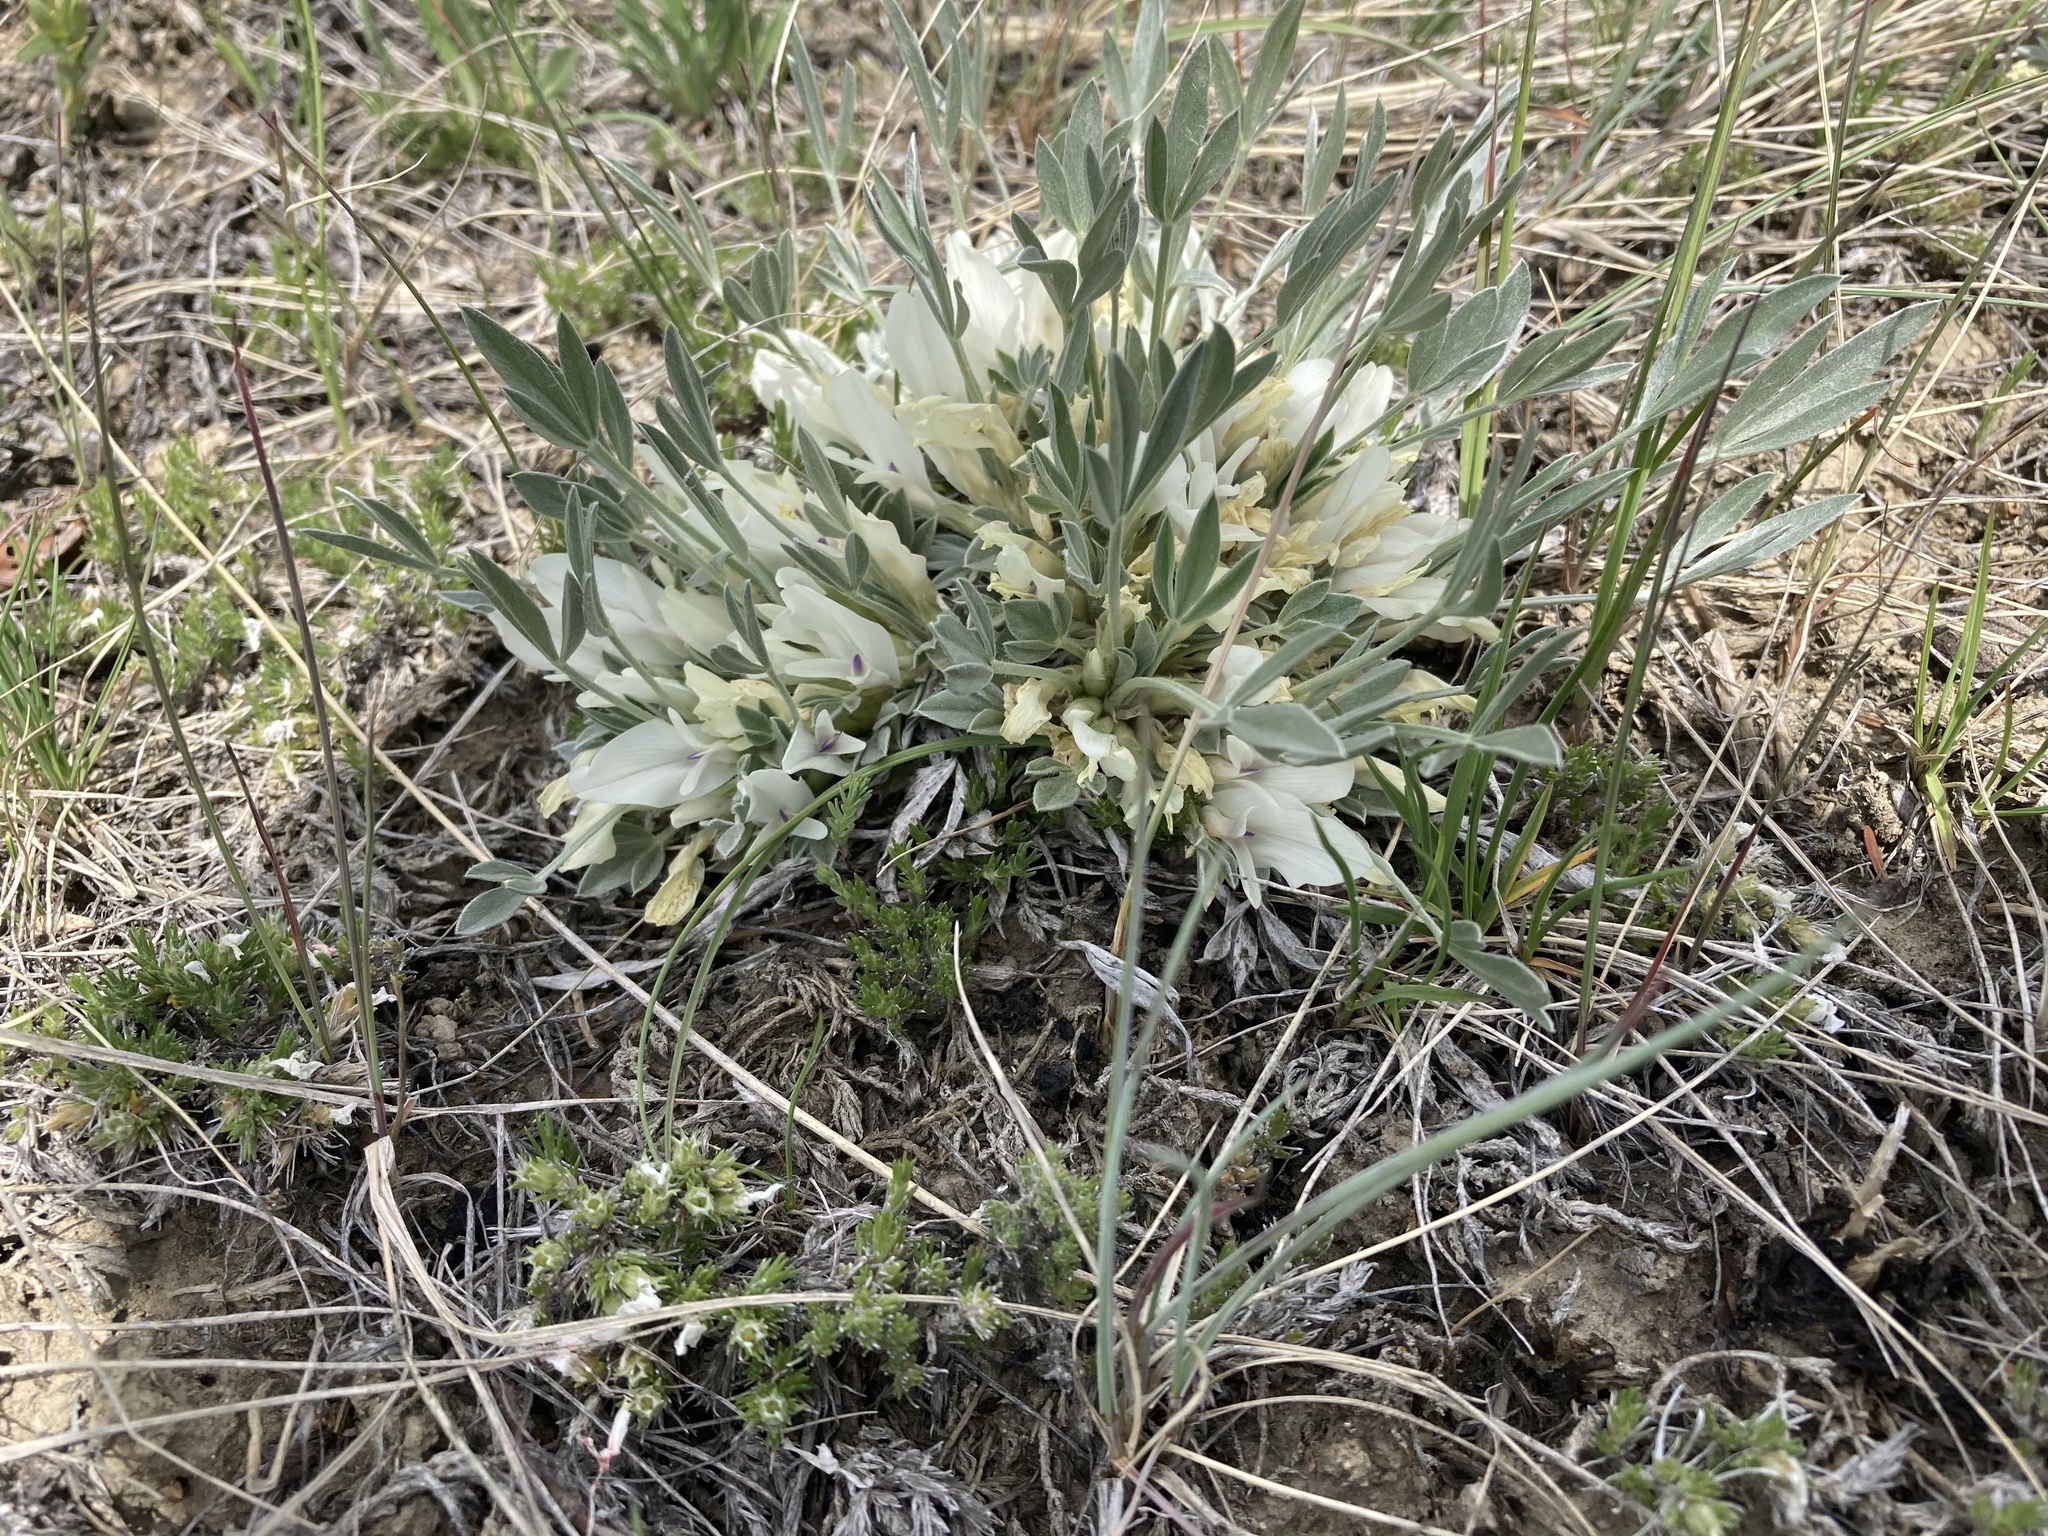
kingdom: Plantae
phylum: Tracheophyta
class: Magnoliopsida
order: Fabales
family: Fabaceae
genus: Astragalus
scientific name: Astragalus gilviflorus
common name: Cushion milk-vetch
